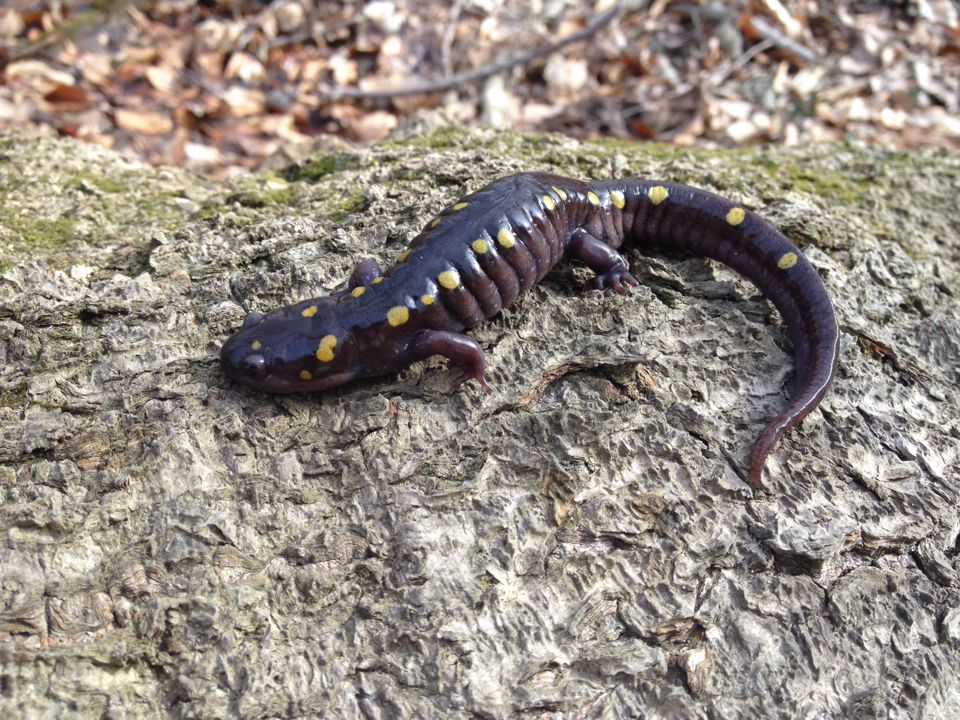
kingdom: Animalia
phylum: Chordata
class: Amphibia
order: Caudata
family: Ambystomatidae
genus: Ambystoma
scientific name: Ambystoma maculatum
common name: Spotted salamander
